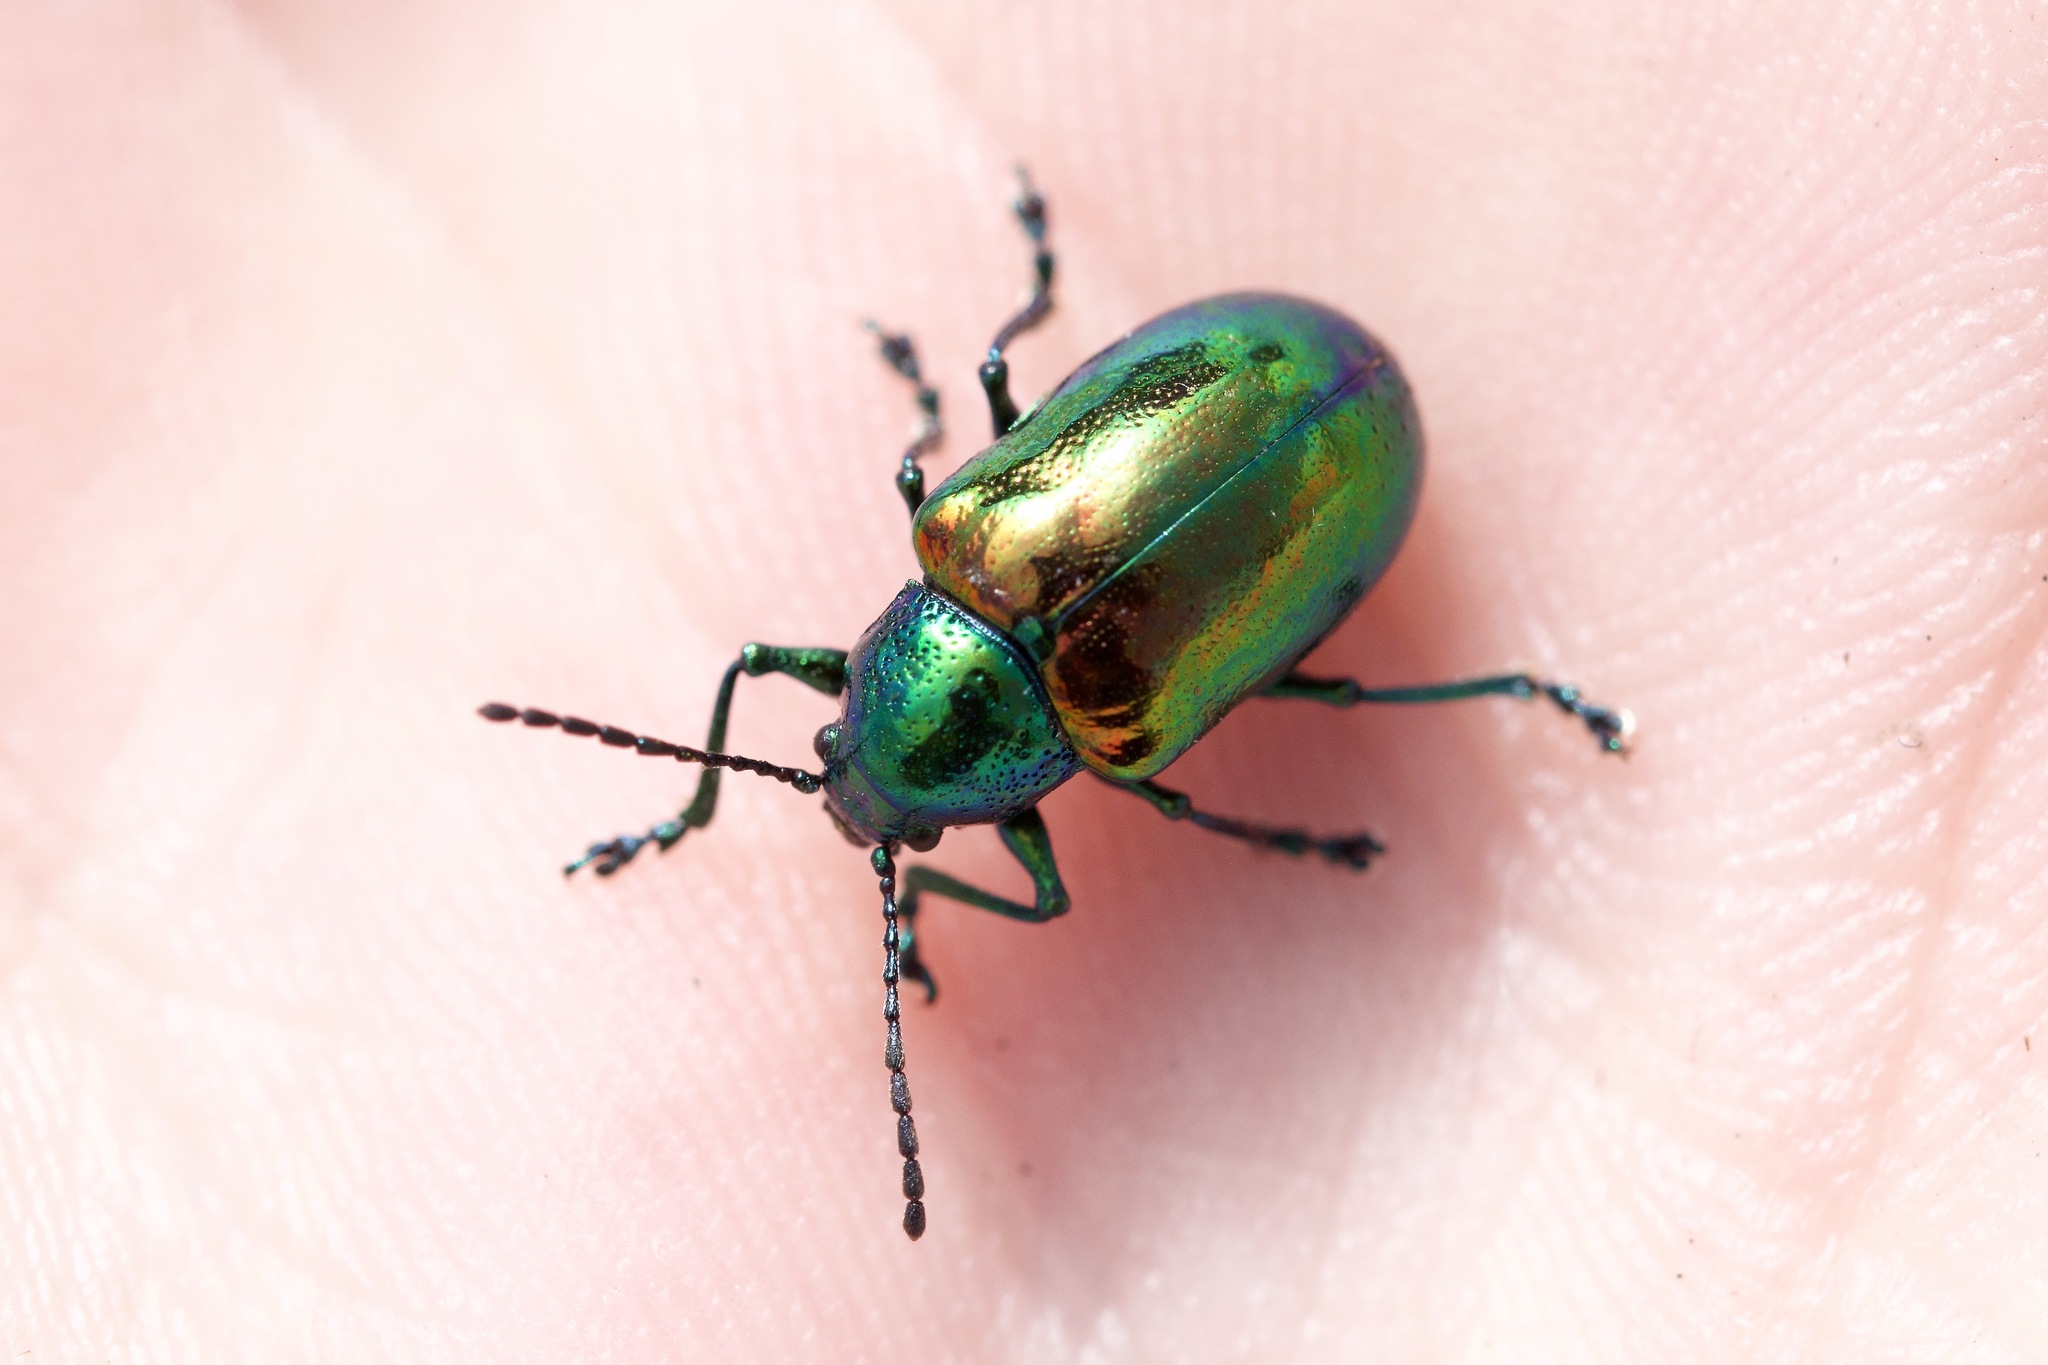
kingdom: Animalia
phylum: Arthropoda
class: Insecta
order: Coleoptera
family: Chrysomelidae
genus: Chrysochus
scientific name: Chrysochus auratus
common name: Dogbane leaf beetle
